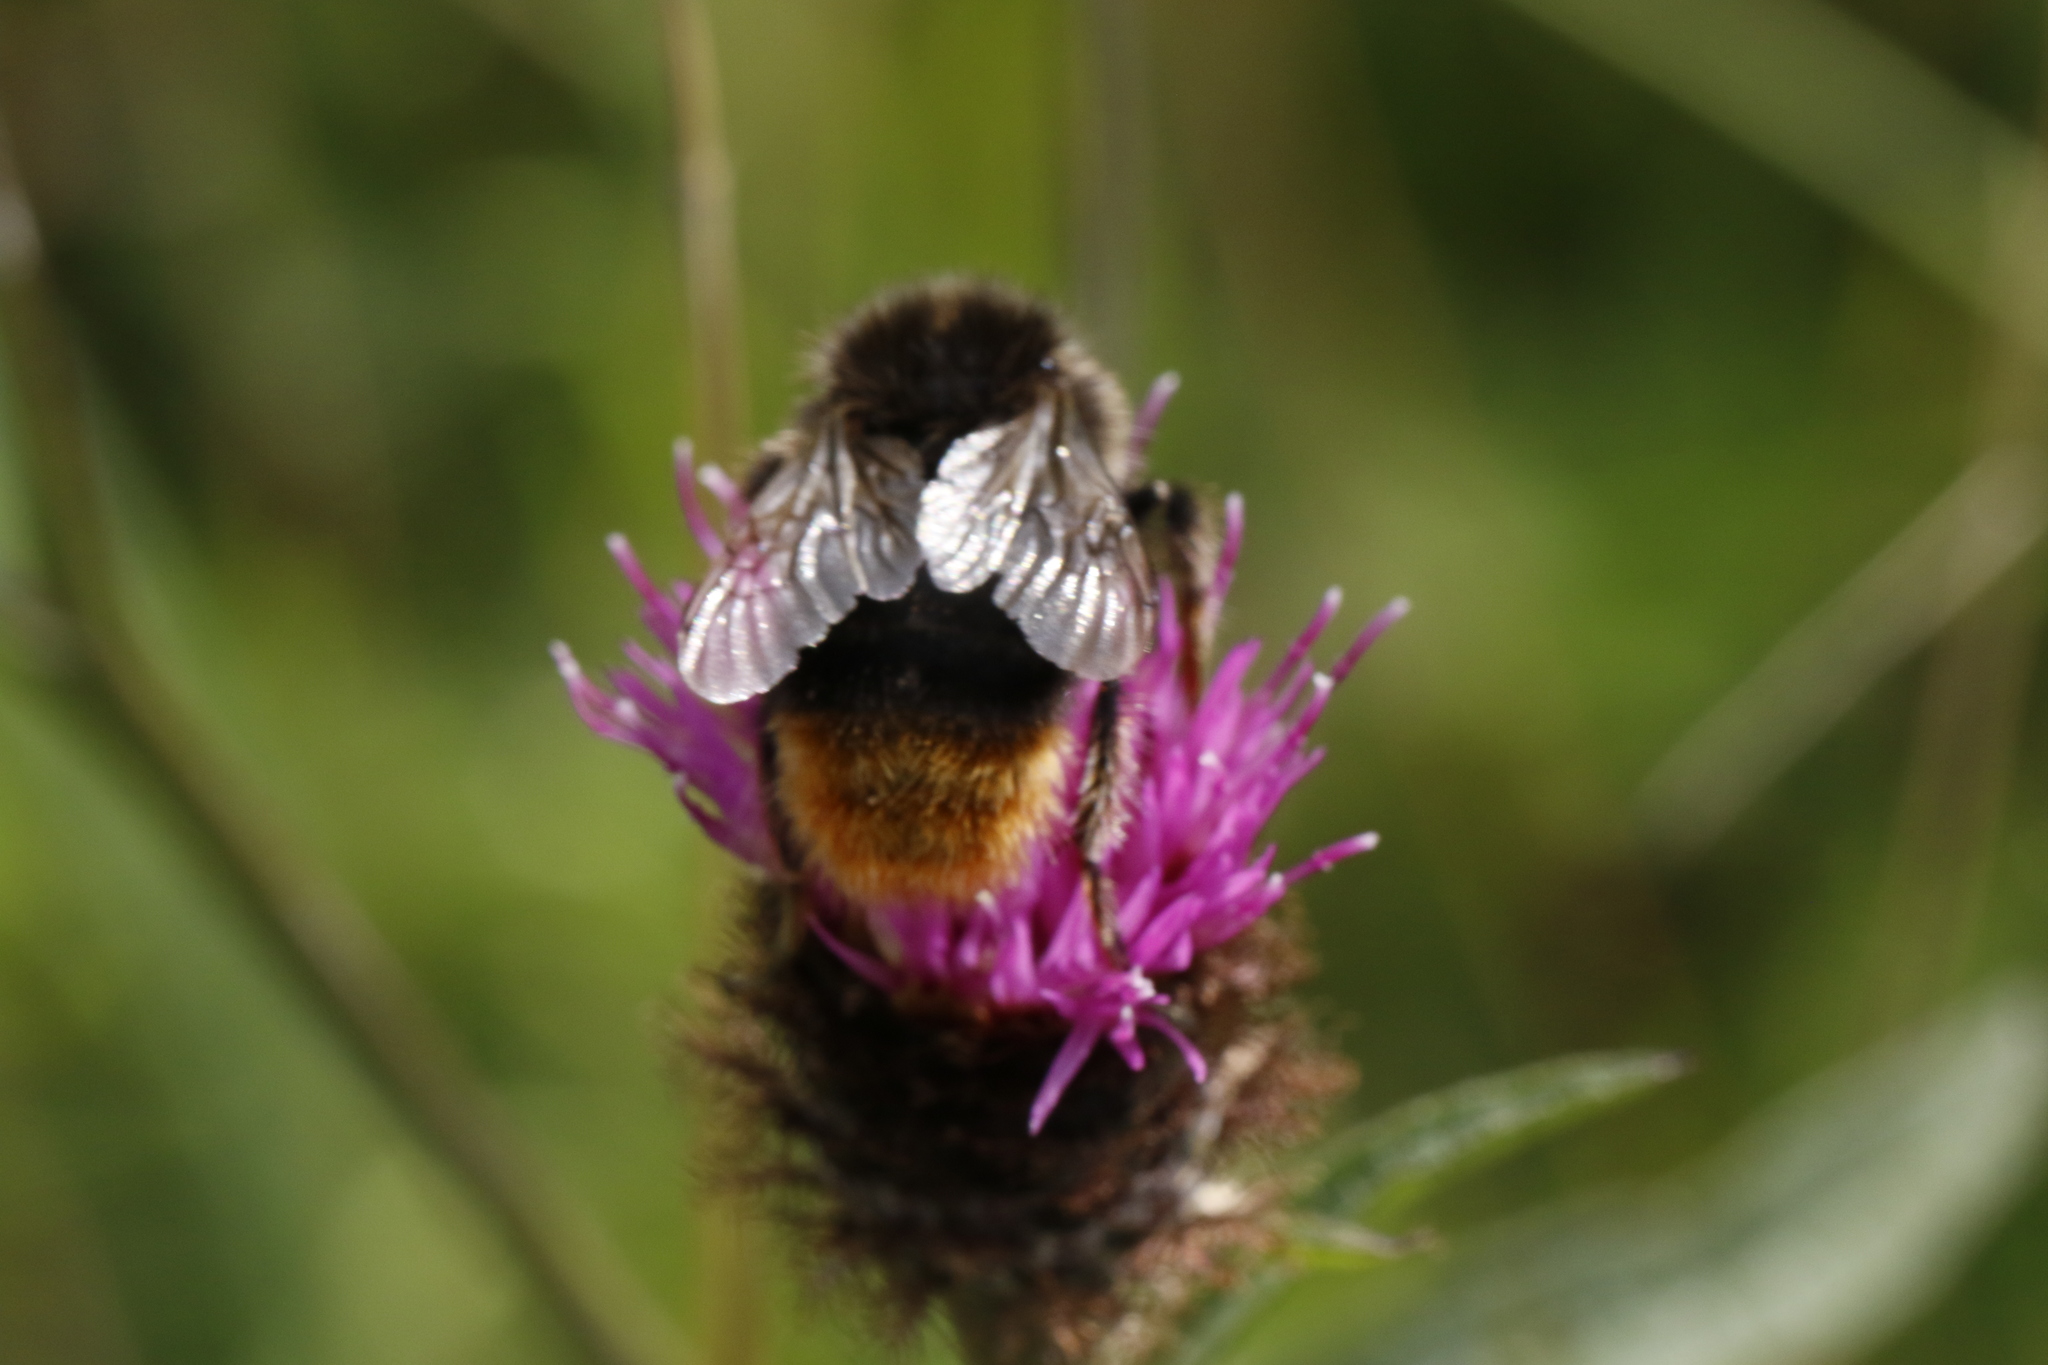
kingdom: Animalia
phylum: Arthropoda
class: Insecta
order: Hymenoptera
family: Apidae
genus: Bombus
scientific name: Bombus lapidarius
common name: Large red-tailed humble-bee
